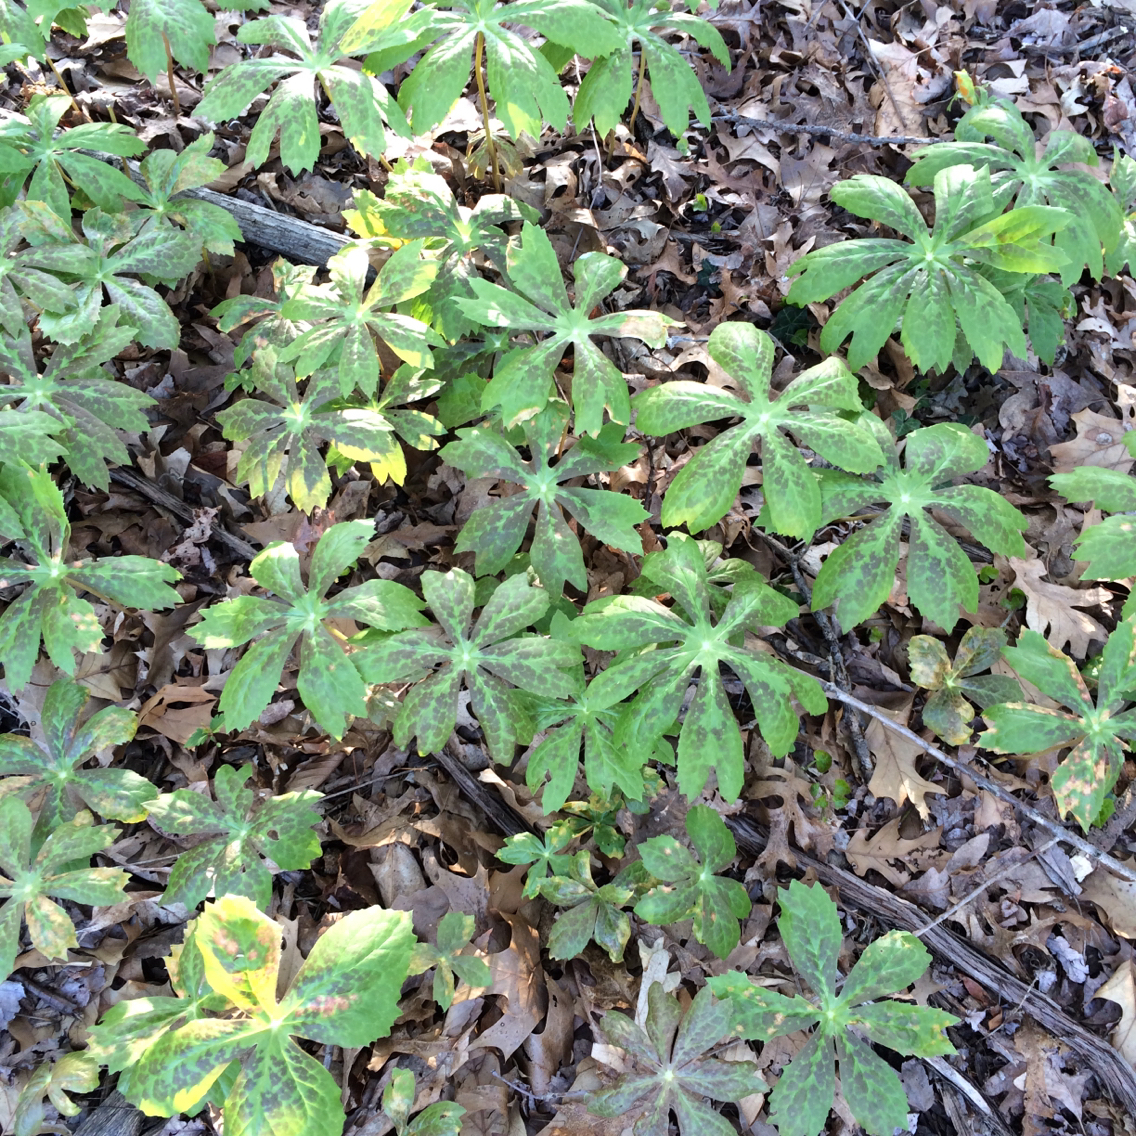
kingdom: Plantae
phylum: Tracheophyta
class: Magnoliopsida
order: Ranunculales
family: Berberidaceae
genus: Podophyllum
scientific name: Podophyllum peltatum
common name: Wild mandrake
